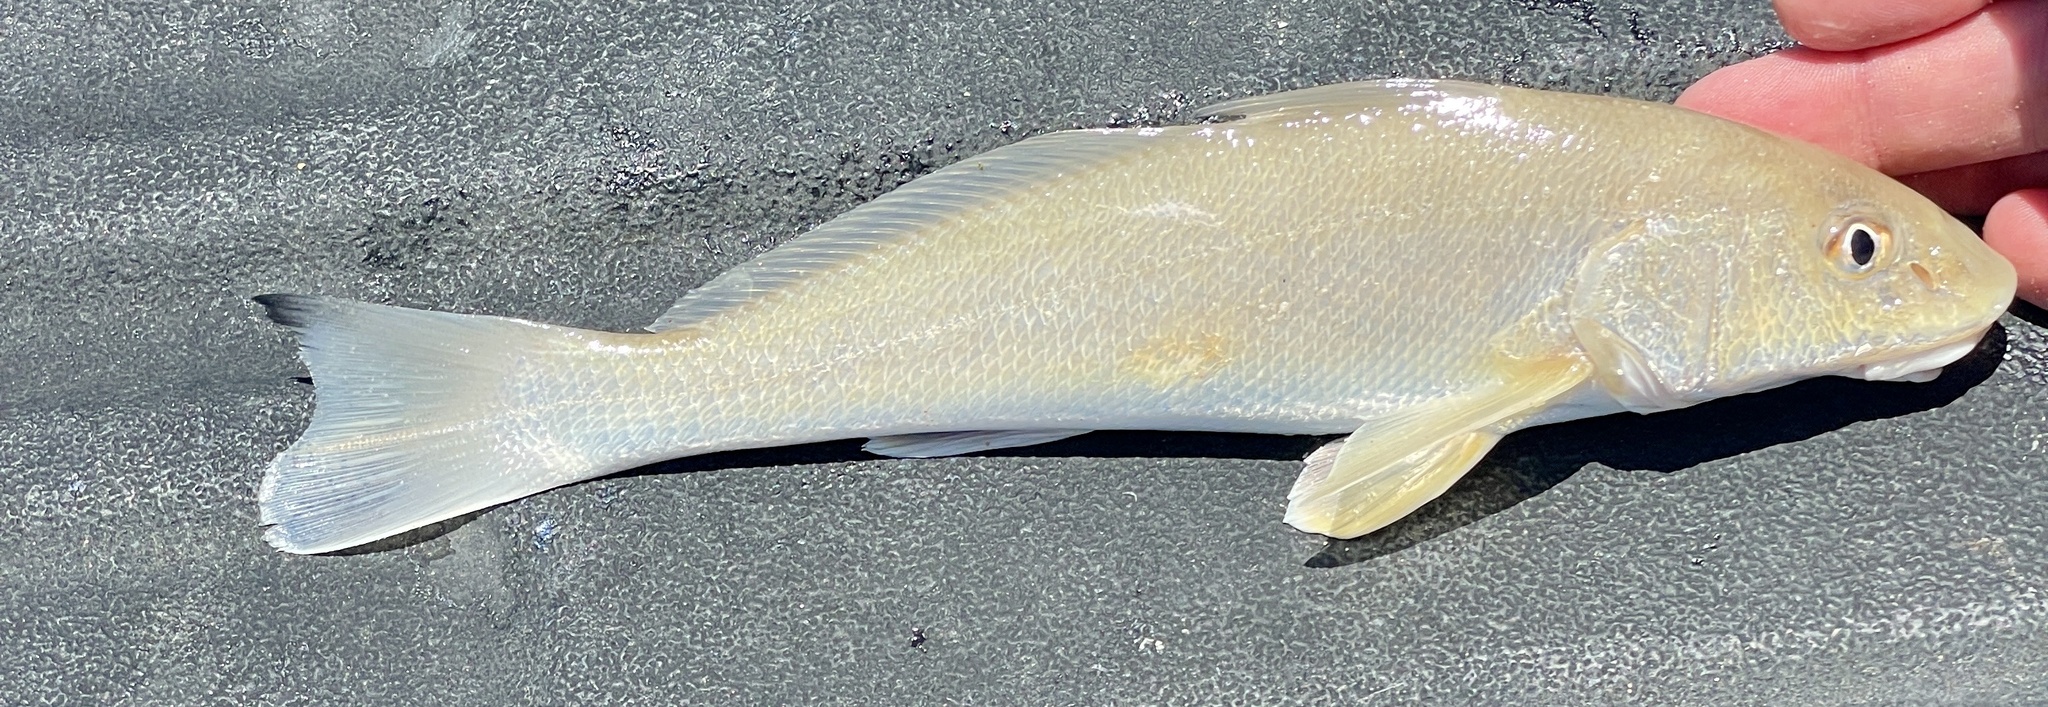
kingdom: Animalia
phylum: Chordata
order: Perciformes
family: Sciaenidae
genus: Menticirrhus
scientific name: Menticirrhus littoralis
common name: Gulf kingcroaker
